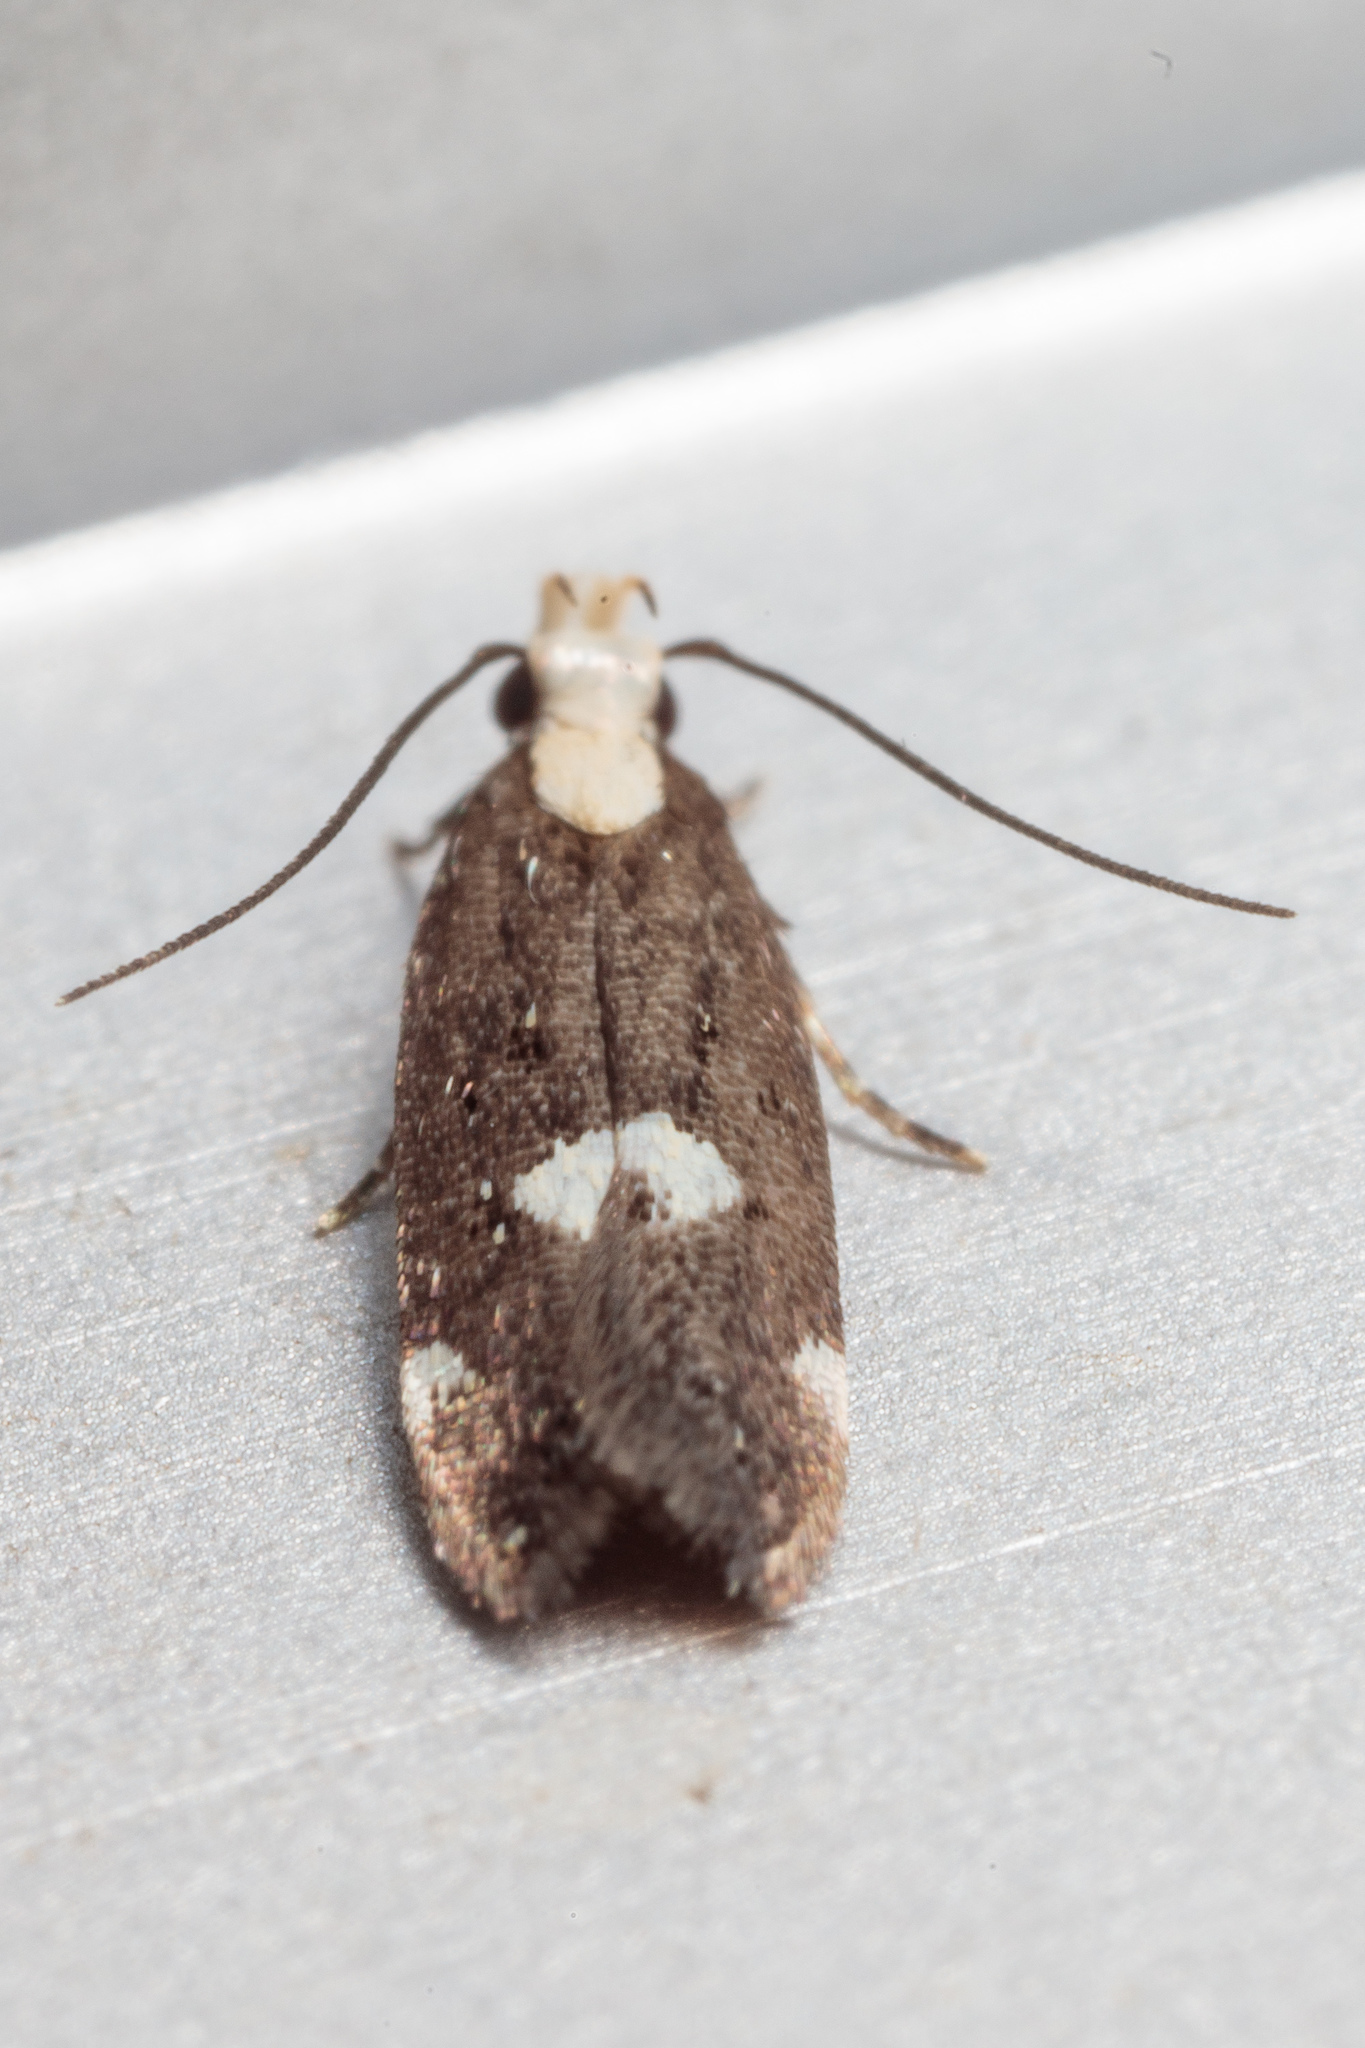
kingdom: Animalia
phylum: Arthropoda
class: Insecta
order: Lepidoptera
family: Gelechiidae
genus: Chionodes
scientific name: Chionodes mariona
